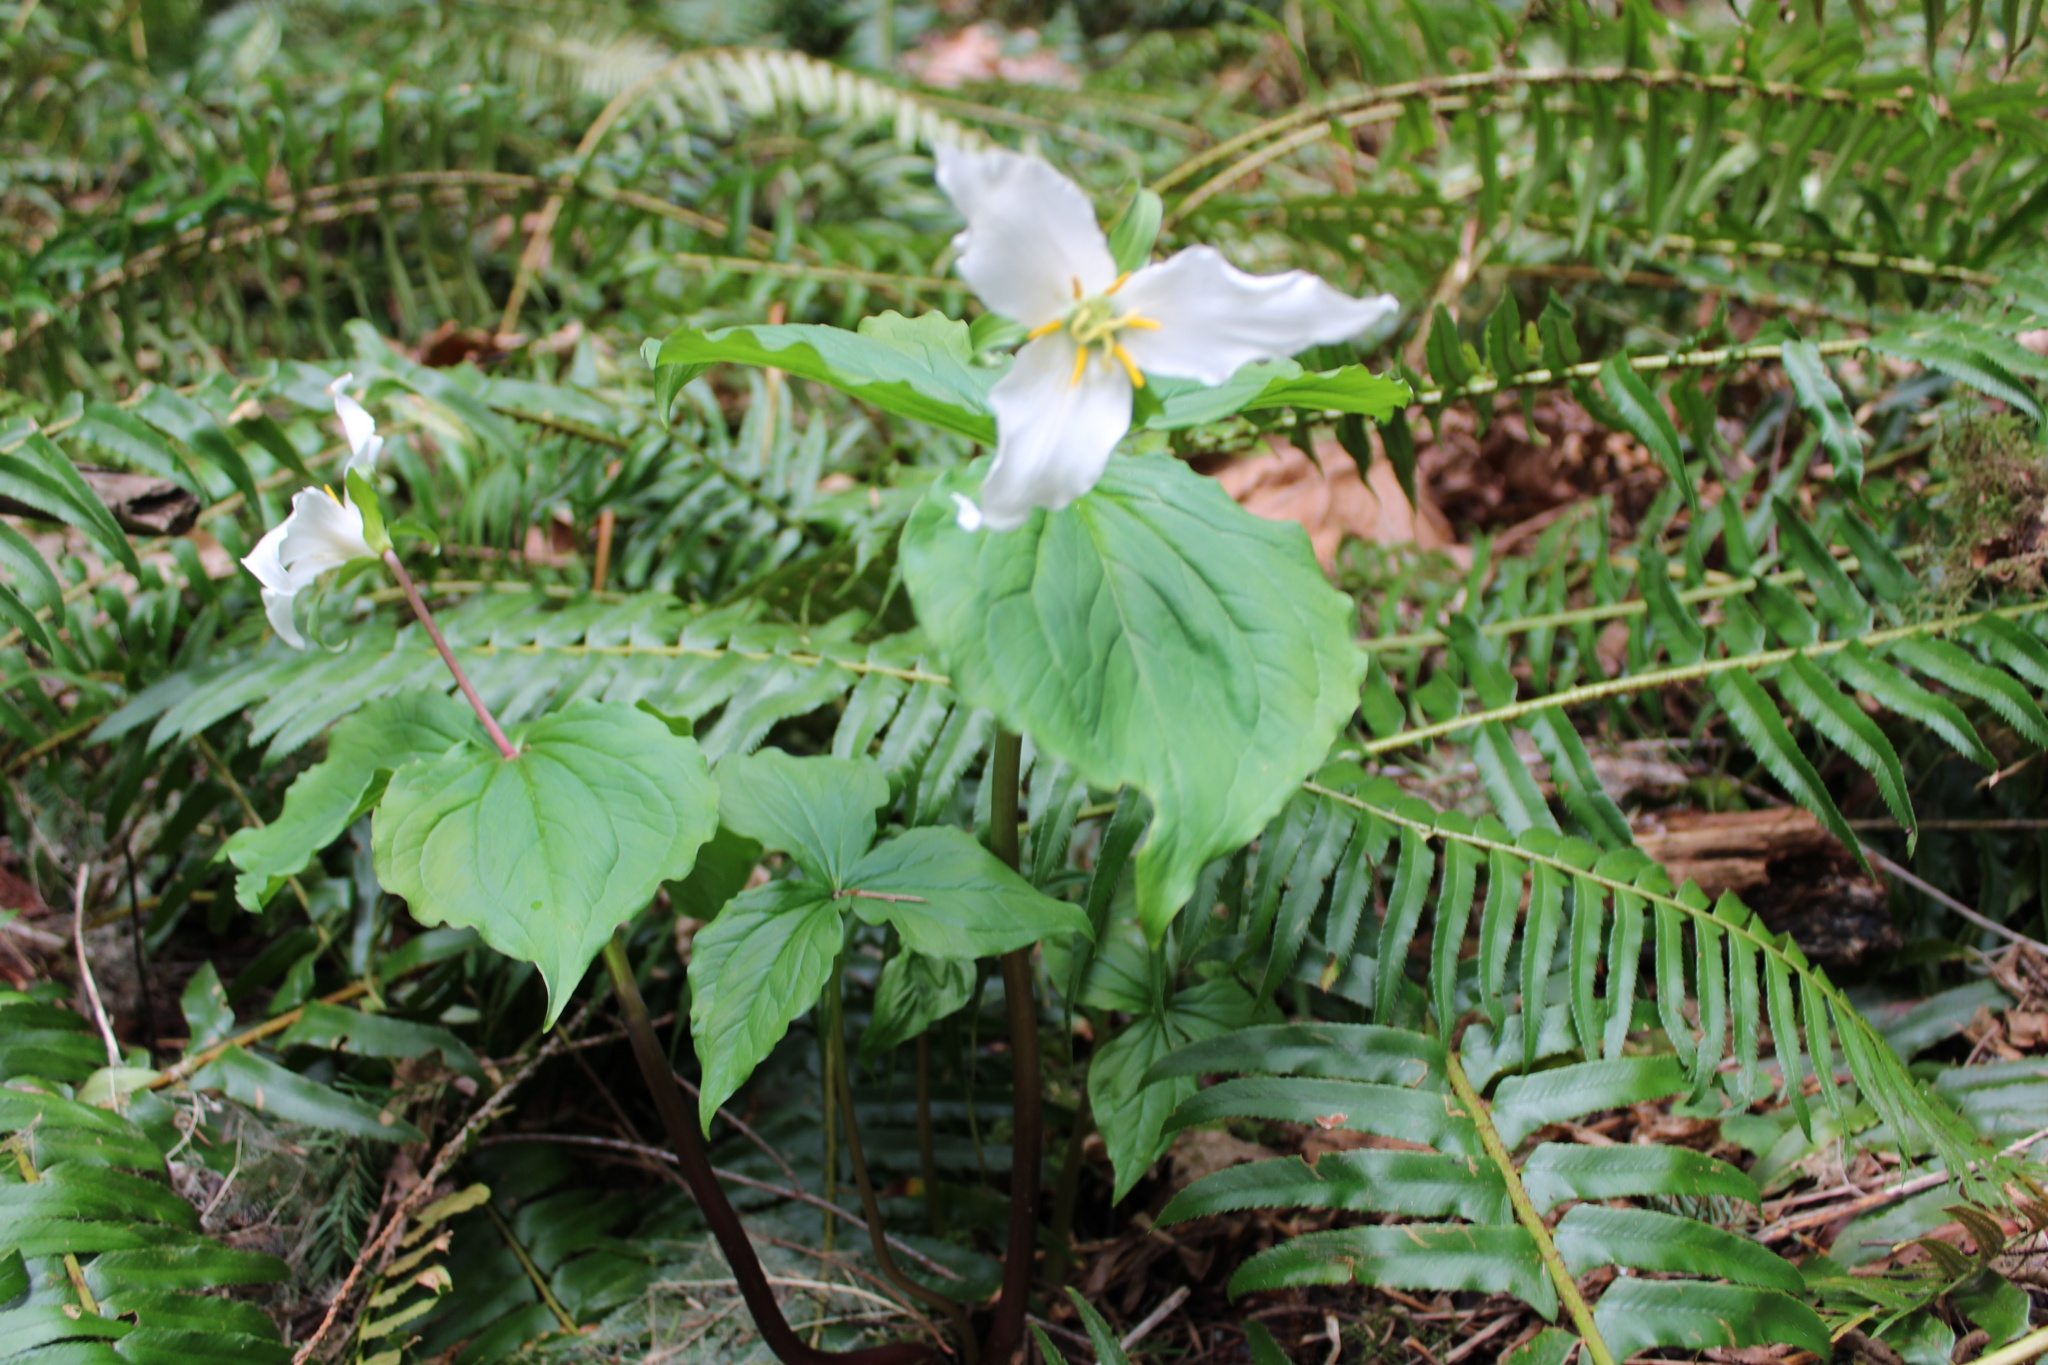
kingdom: Plantae
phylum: Tracheophyta
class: Liliopsida
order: Liliales
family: Melanthiaceae
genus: Trillium
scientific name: Trillium ovatum
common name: Pacific trillium
